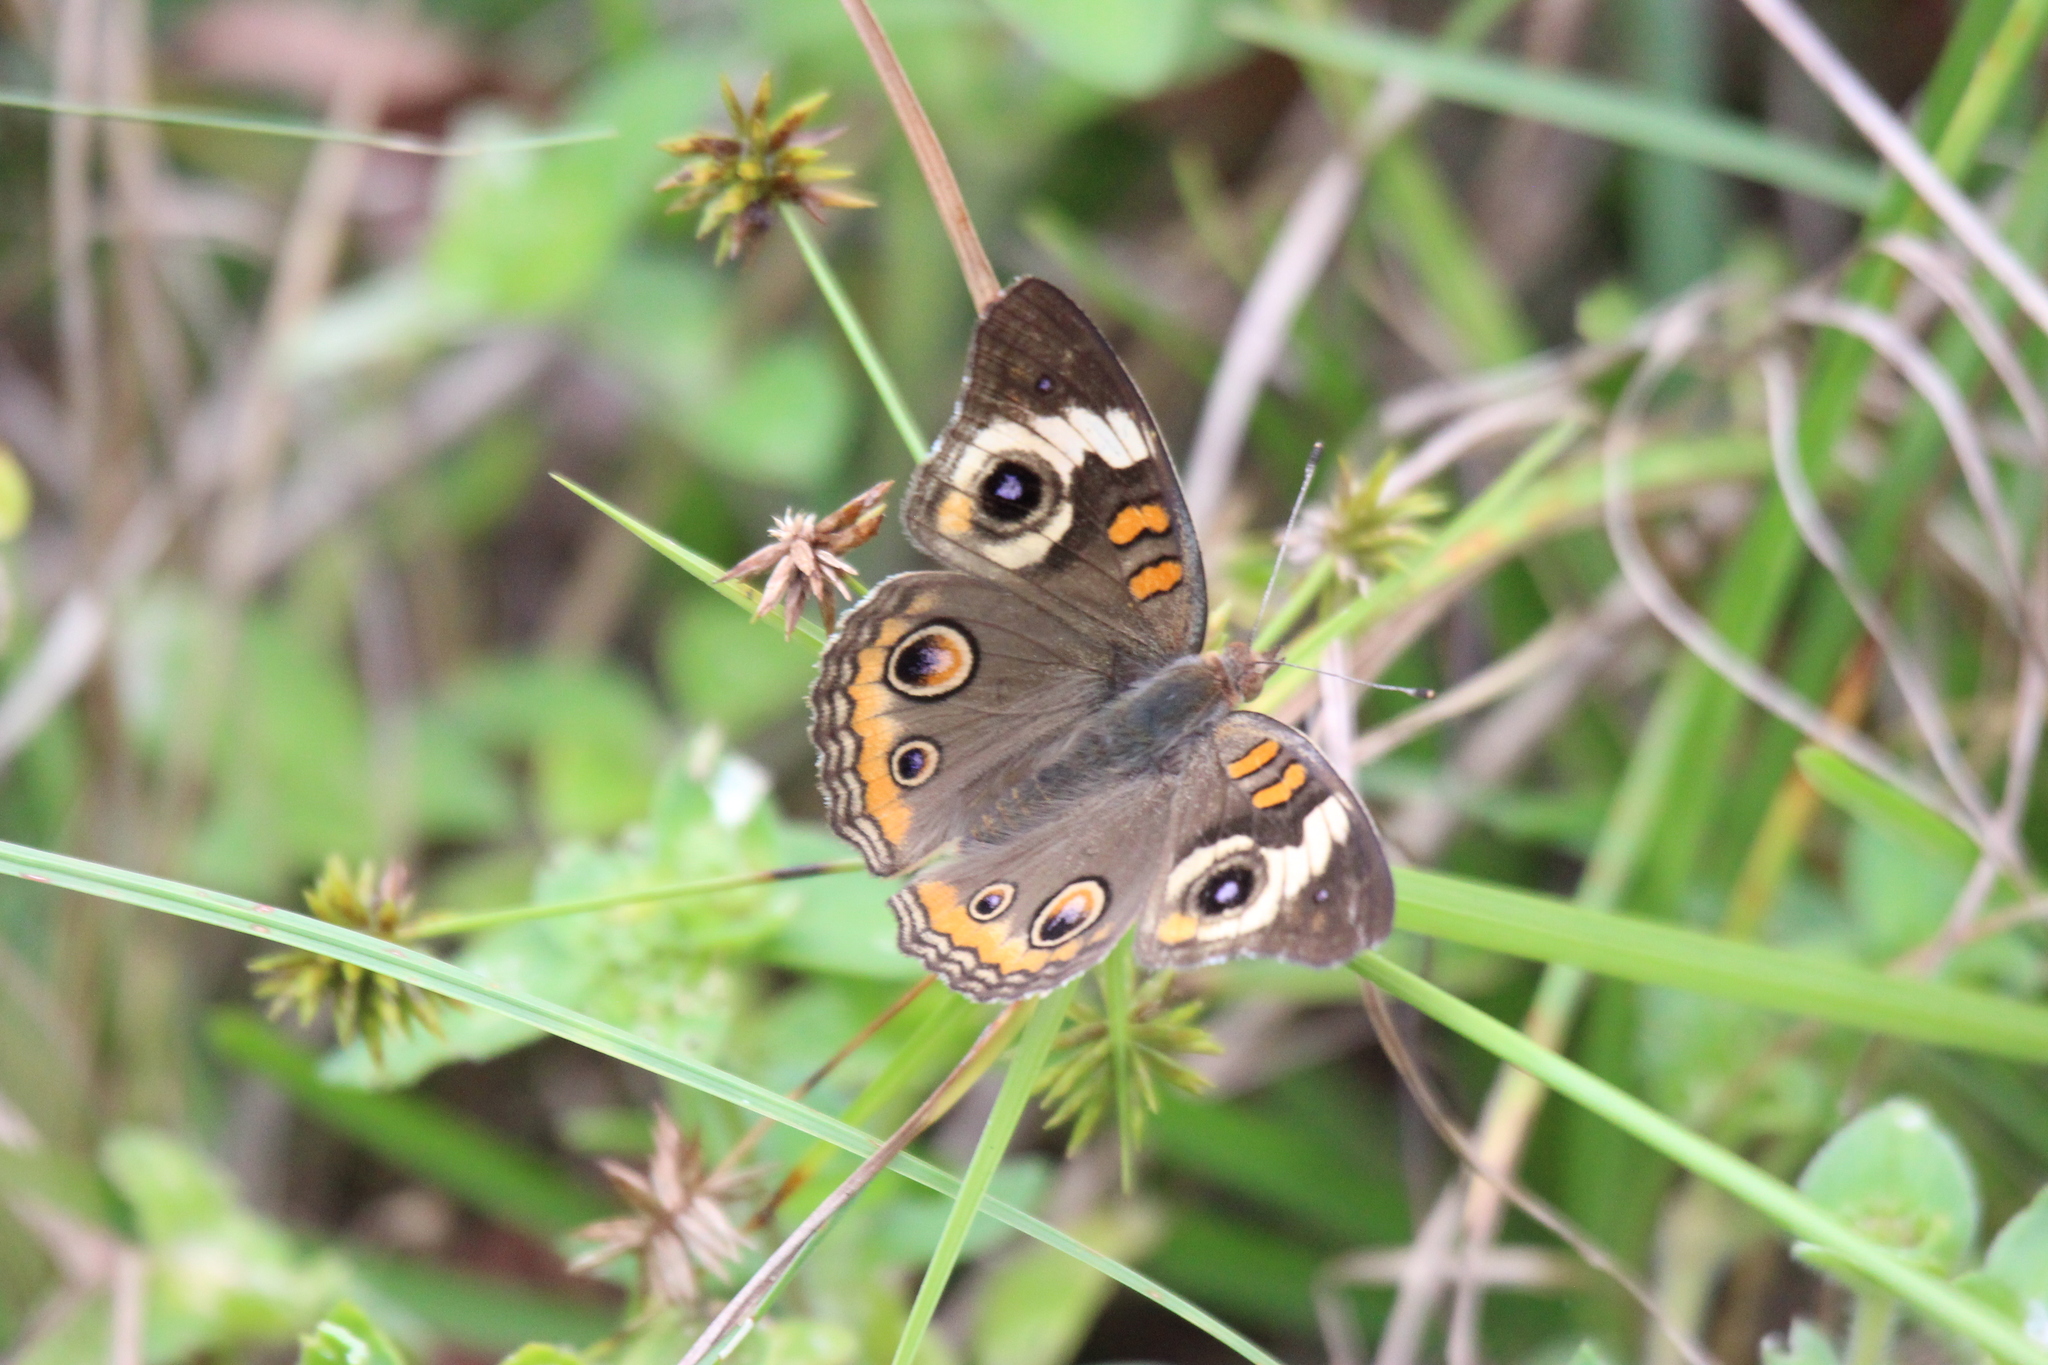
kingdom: Animalia
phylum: Arthropoda
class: Insecta
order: Lepidoptera
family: Nymphalidae
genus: Junonia
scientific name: Junonia coenia
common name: Common buckeye
